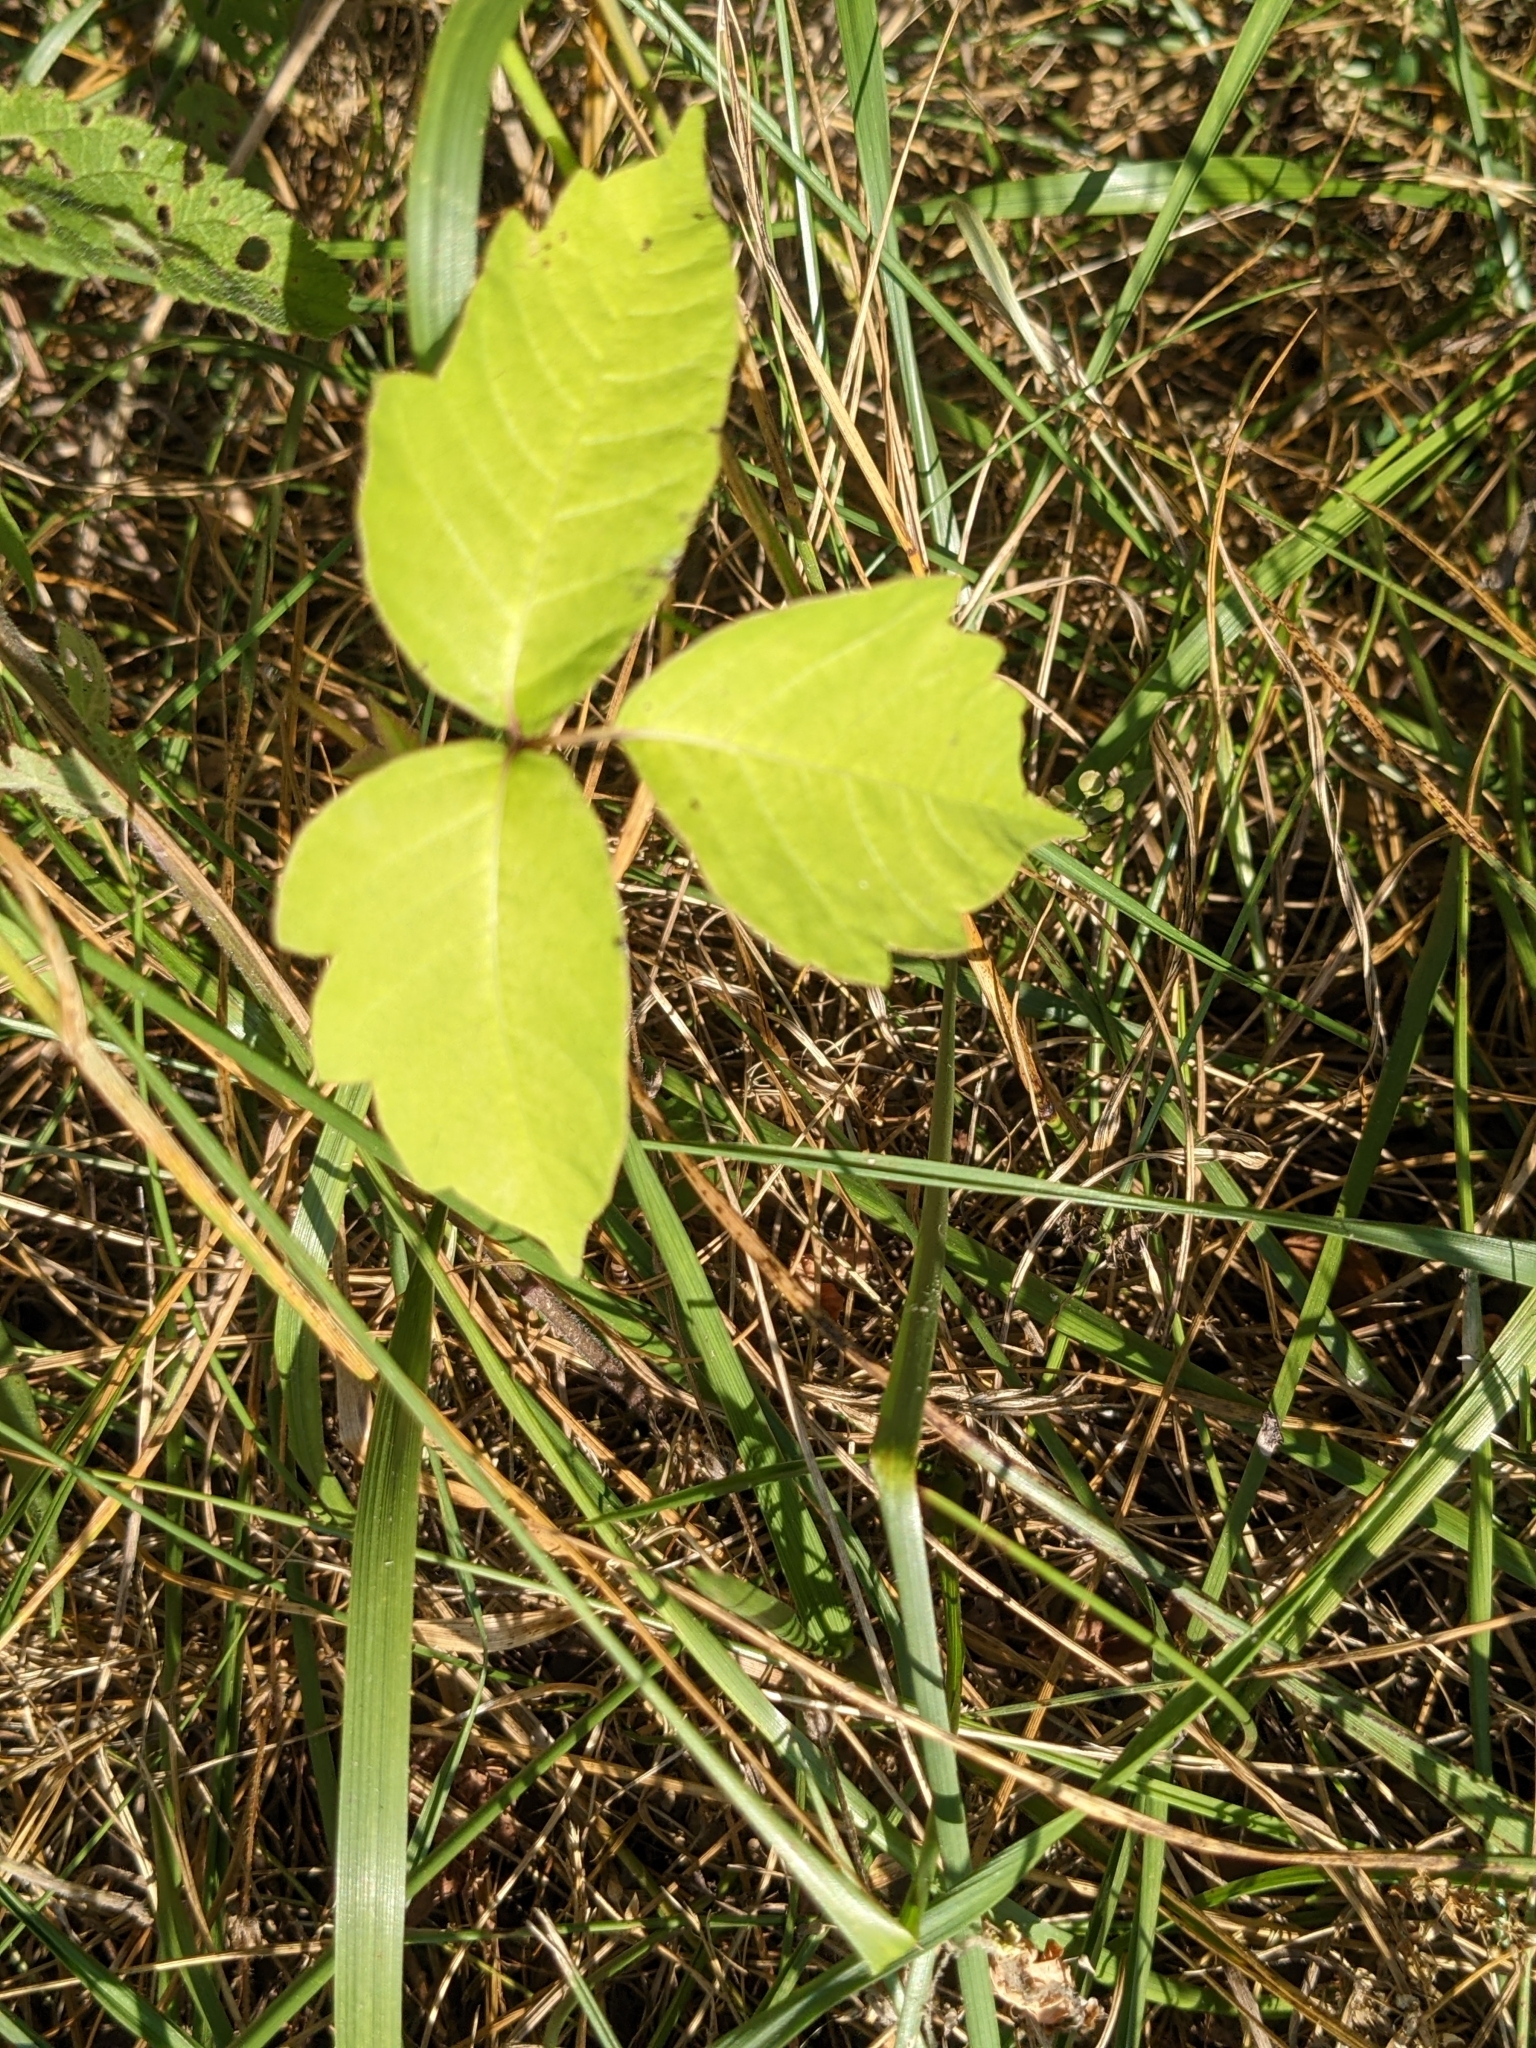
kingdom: Plantae
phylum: Tracheophyta
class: Magnoliopsida
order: Sapindales
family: Anacardiaceae
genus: Toxicodendron
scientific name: Toxicodendron radicans
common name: Poison ivy
